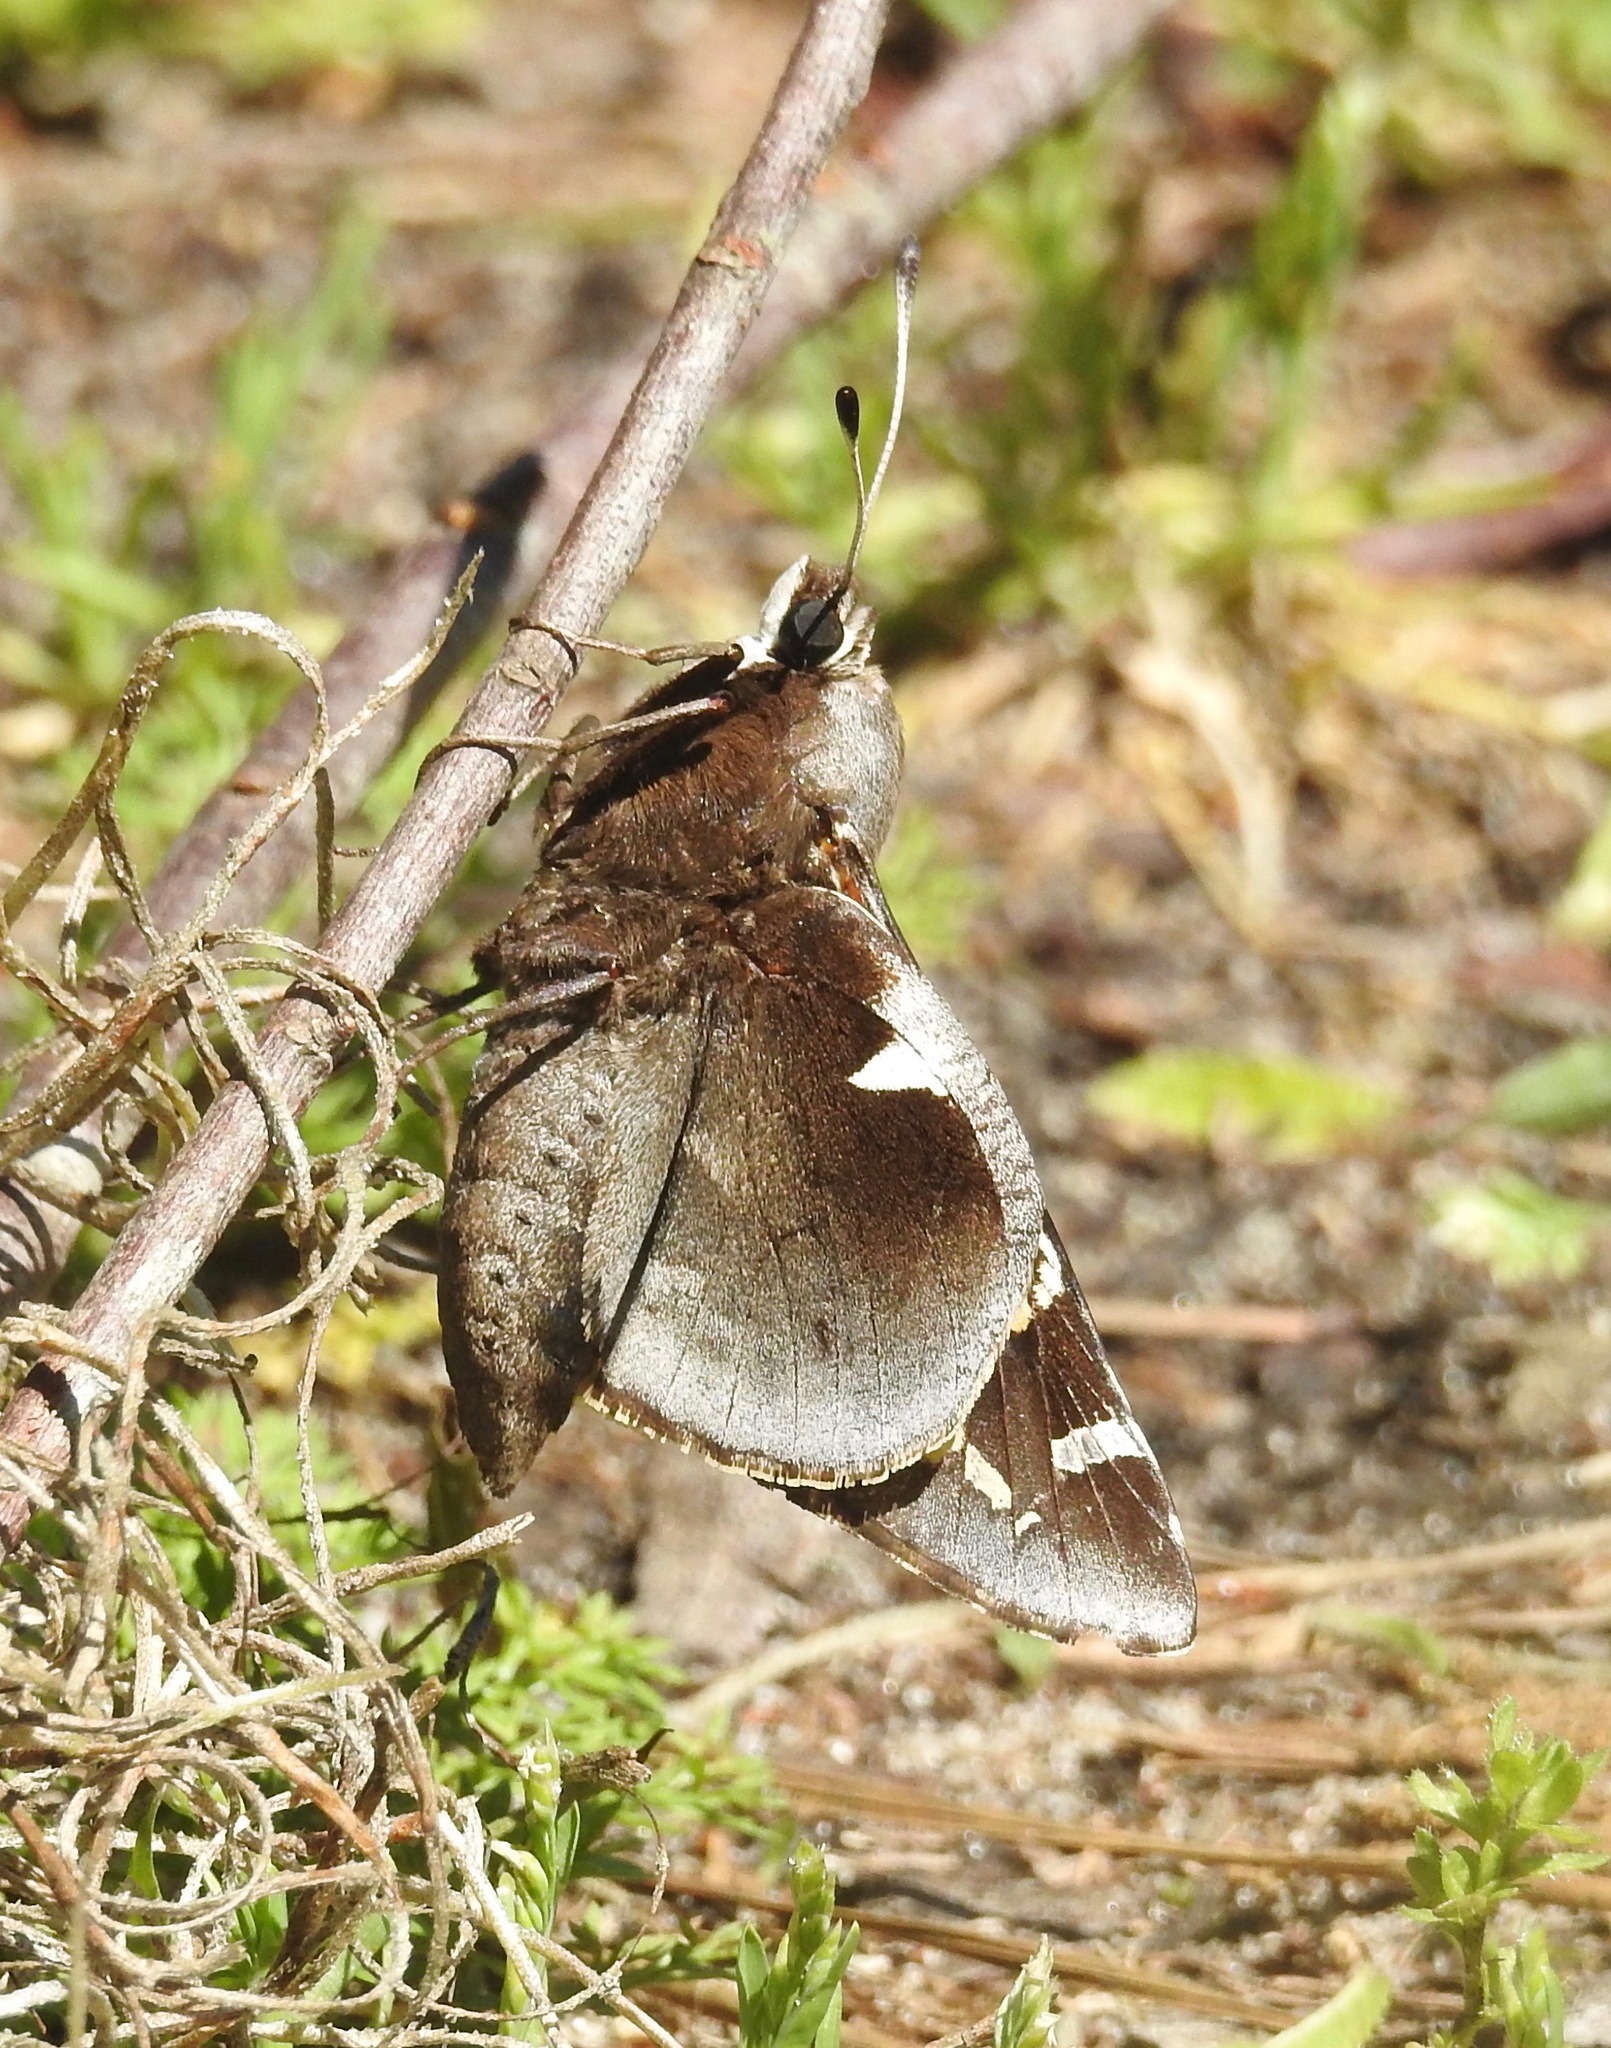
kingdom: Animalia
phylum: Arthropoda
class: Insecta
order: Lepidoptera
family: Hesperiidae
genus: Megathymus
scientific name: Megathymus yuccae
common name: Yucca giant-skipper
